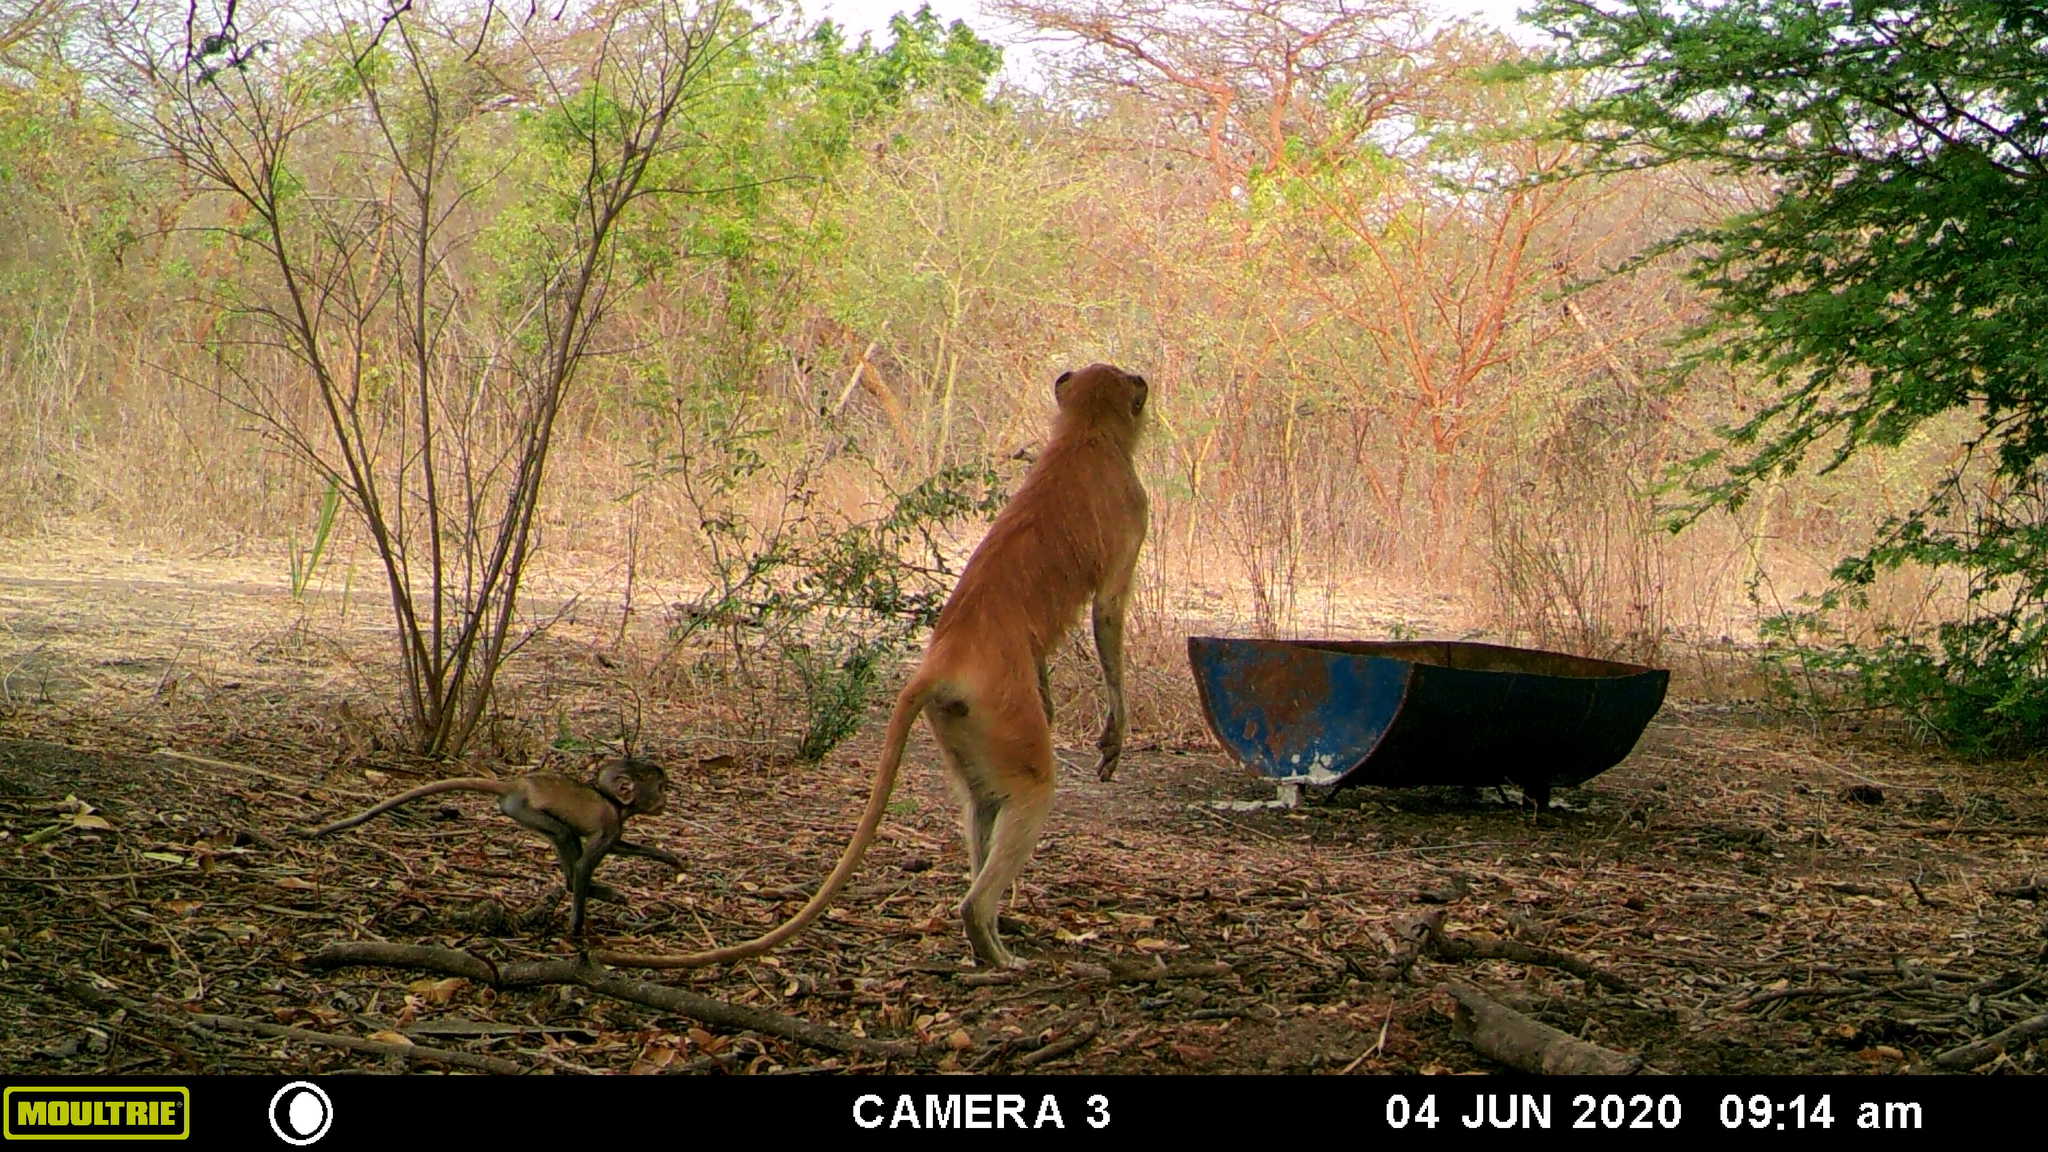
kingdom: Animalia
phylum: Chordata
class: Mammalia
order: Primates
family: Cercopithecidae
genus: Erythrocebus
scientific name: Erythrocebus patas
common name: Patas monkey
